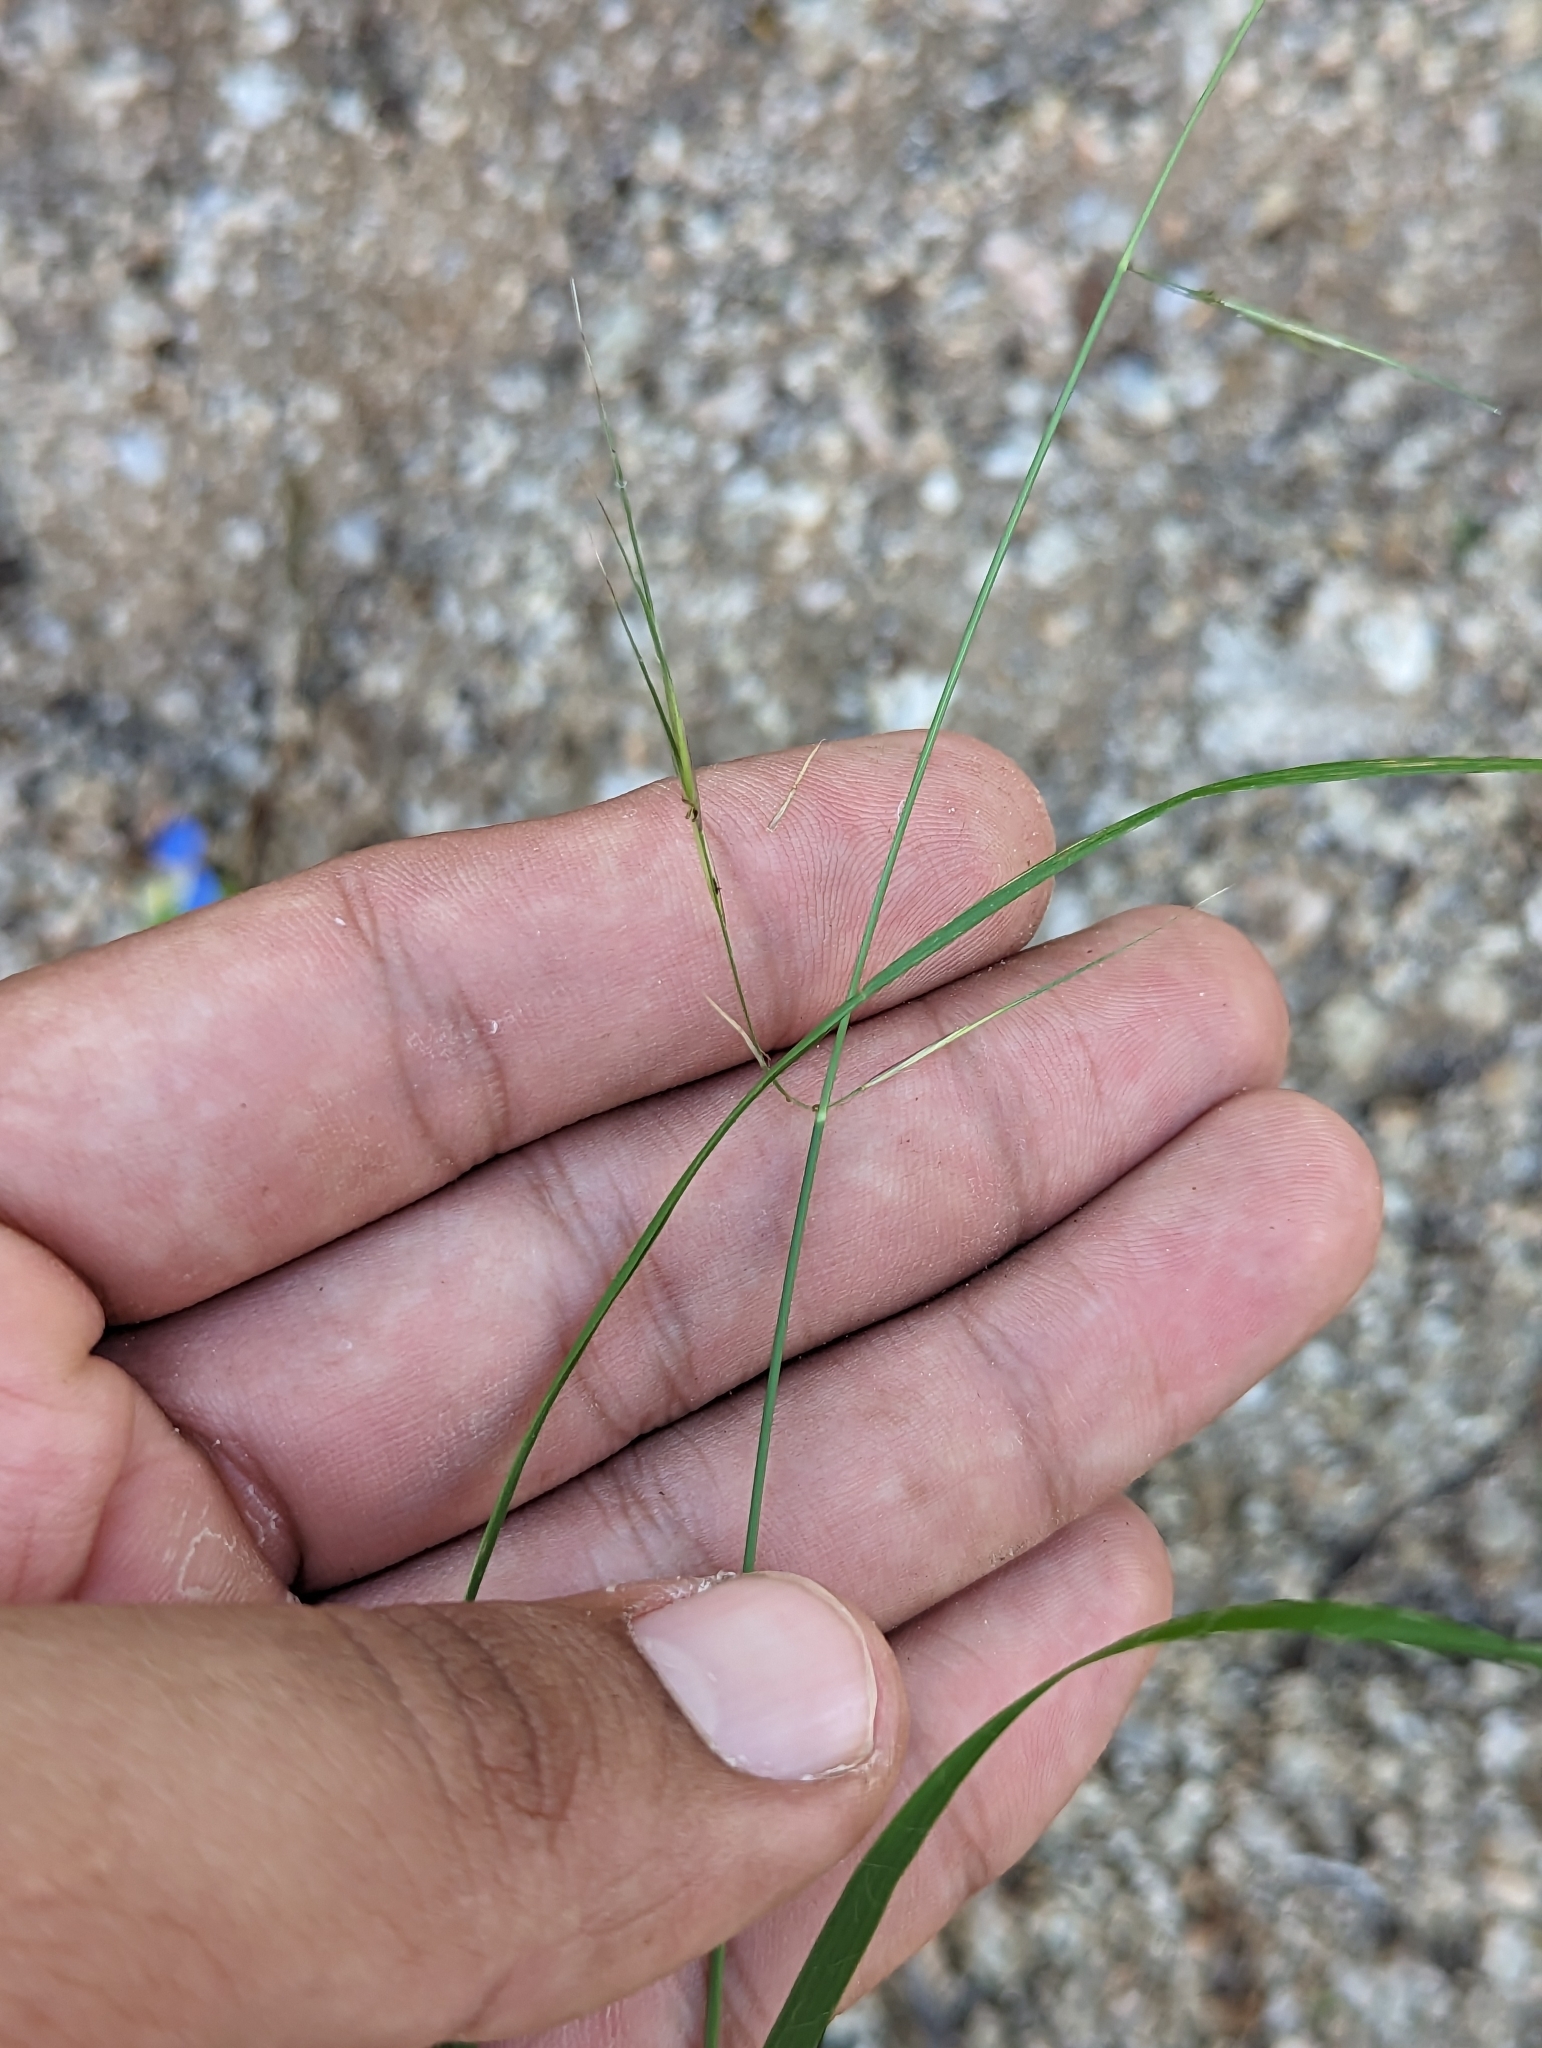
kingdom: Plantae
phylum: Tracheophyta
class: Liliopsida
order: Poales
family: Poaceae
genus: Aristida
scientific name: Aristida glabrata
